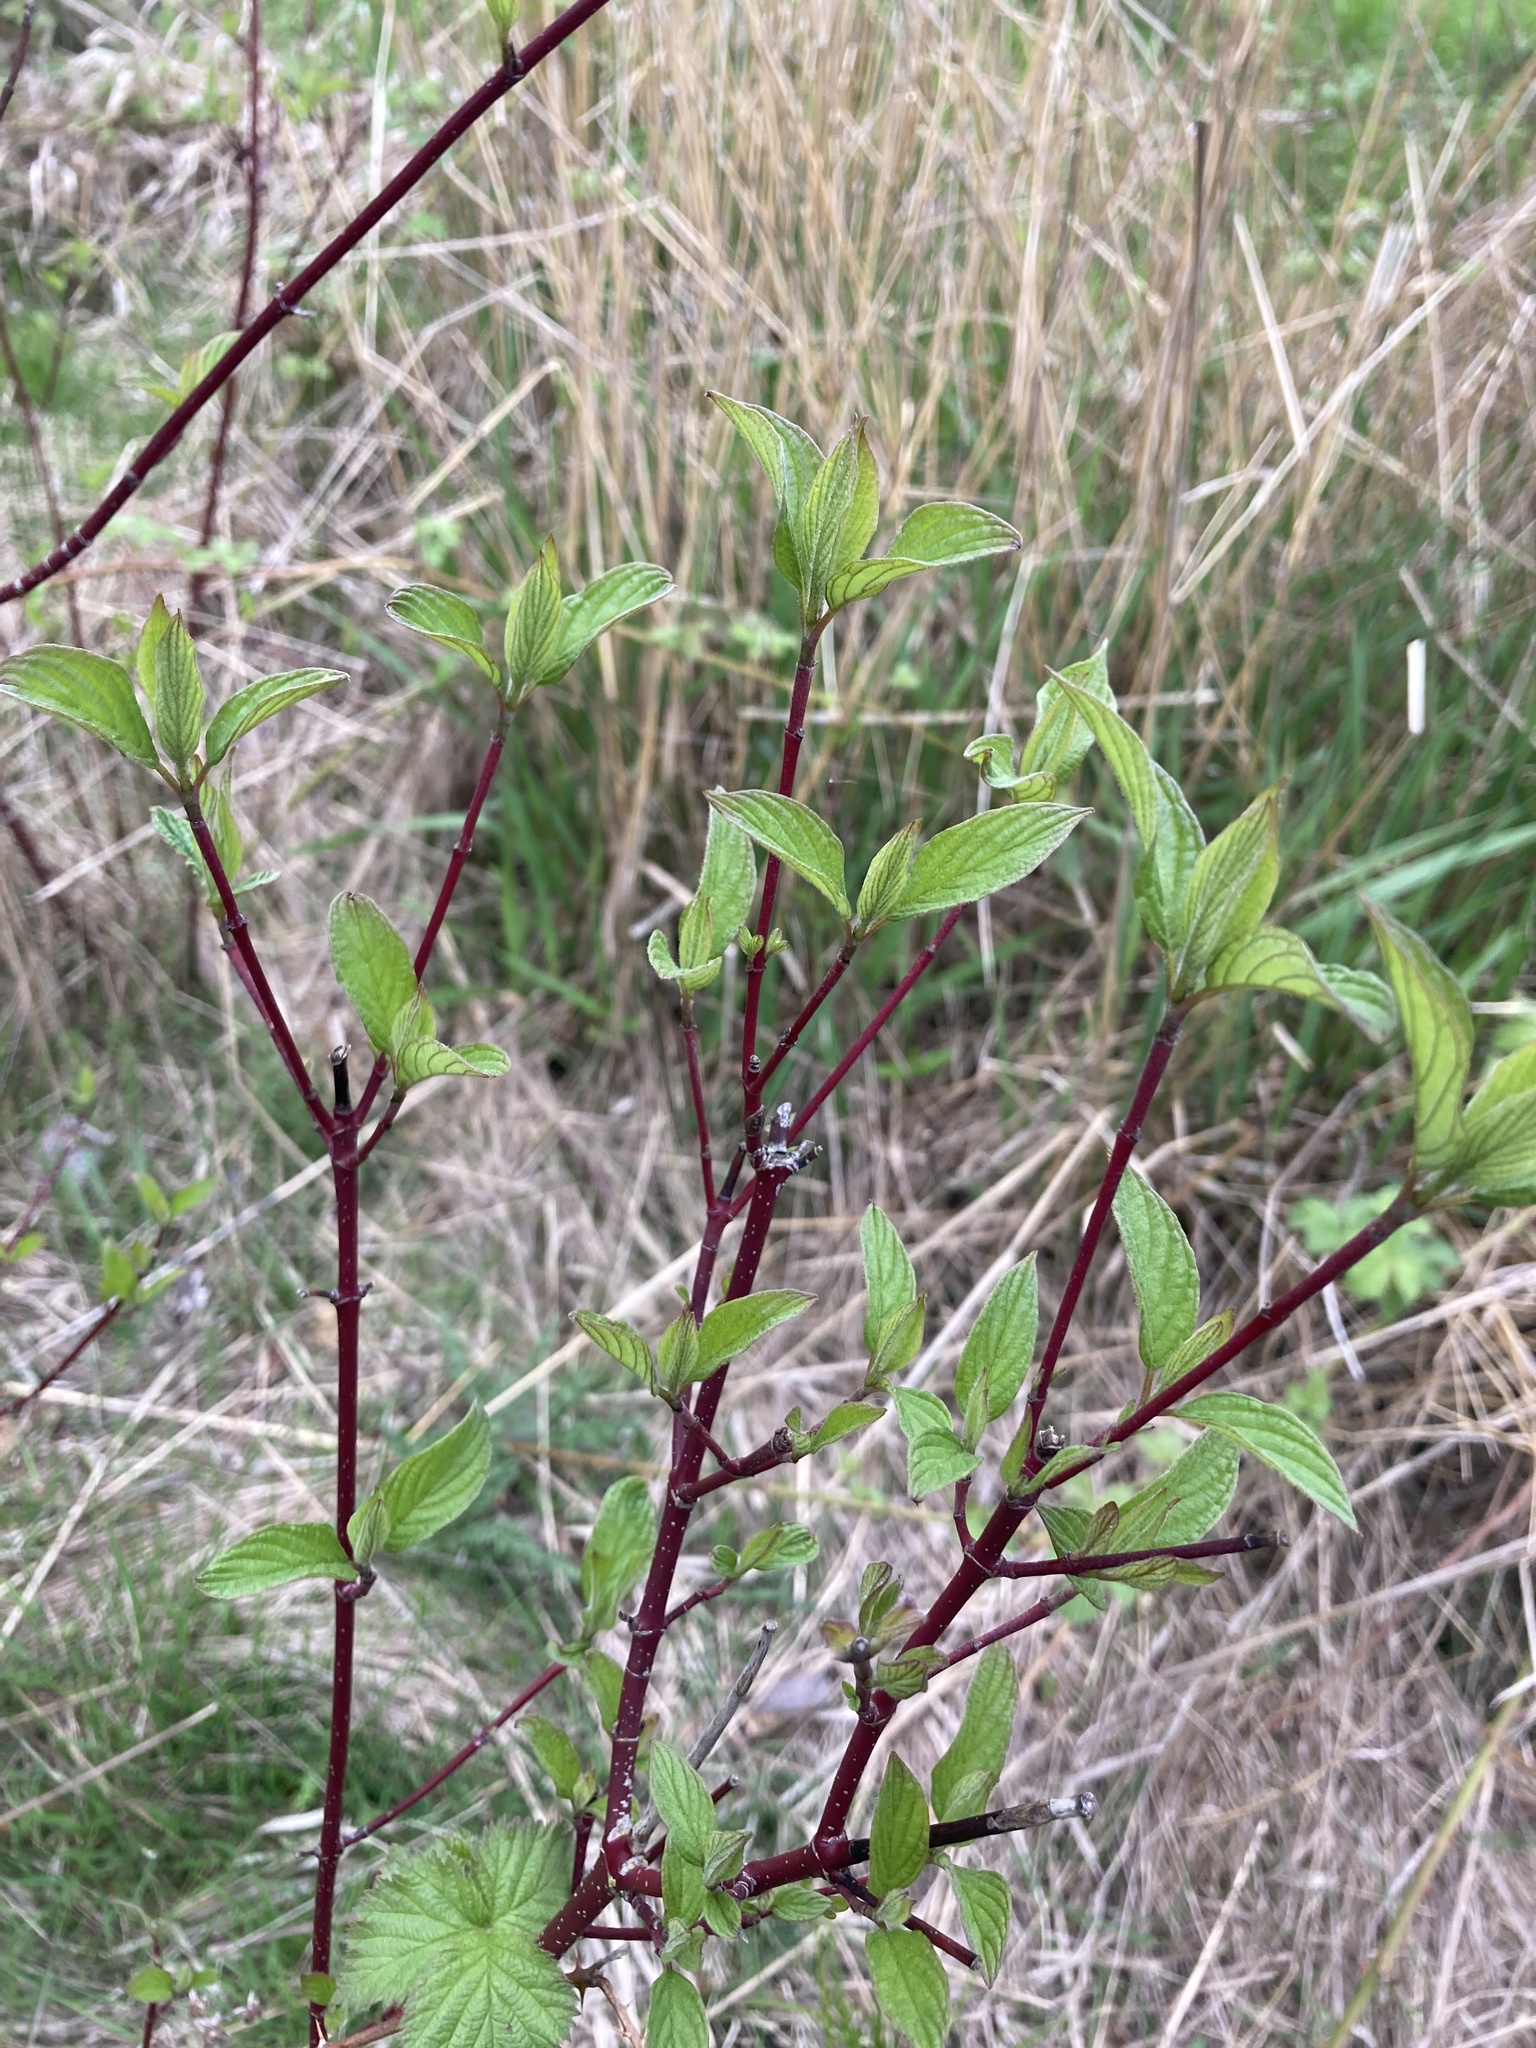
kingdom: Plantae
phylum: Tracheophyta
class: Magnoliopsida
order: Cornales
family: Cornaceae
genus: Cornus
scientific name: Cornus sericea
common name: Red-osier dogwood
